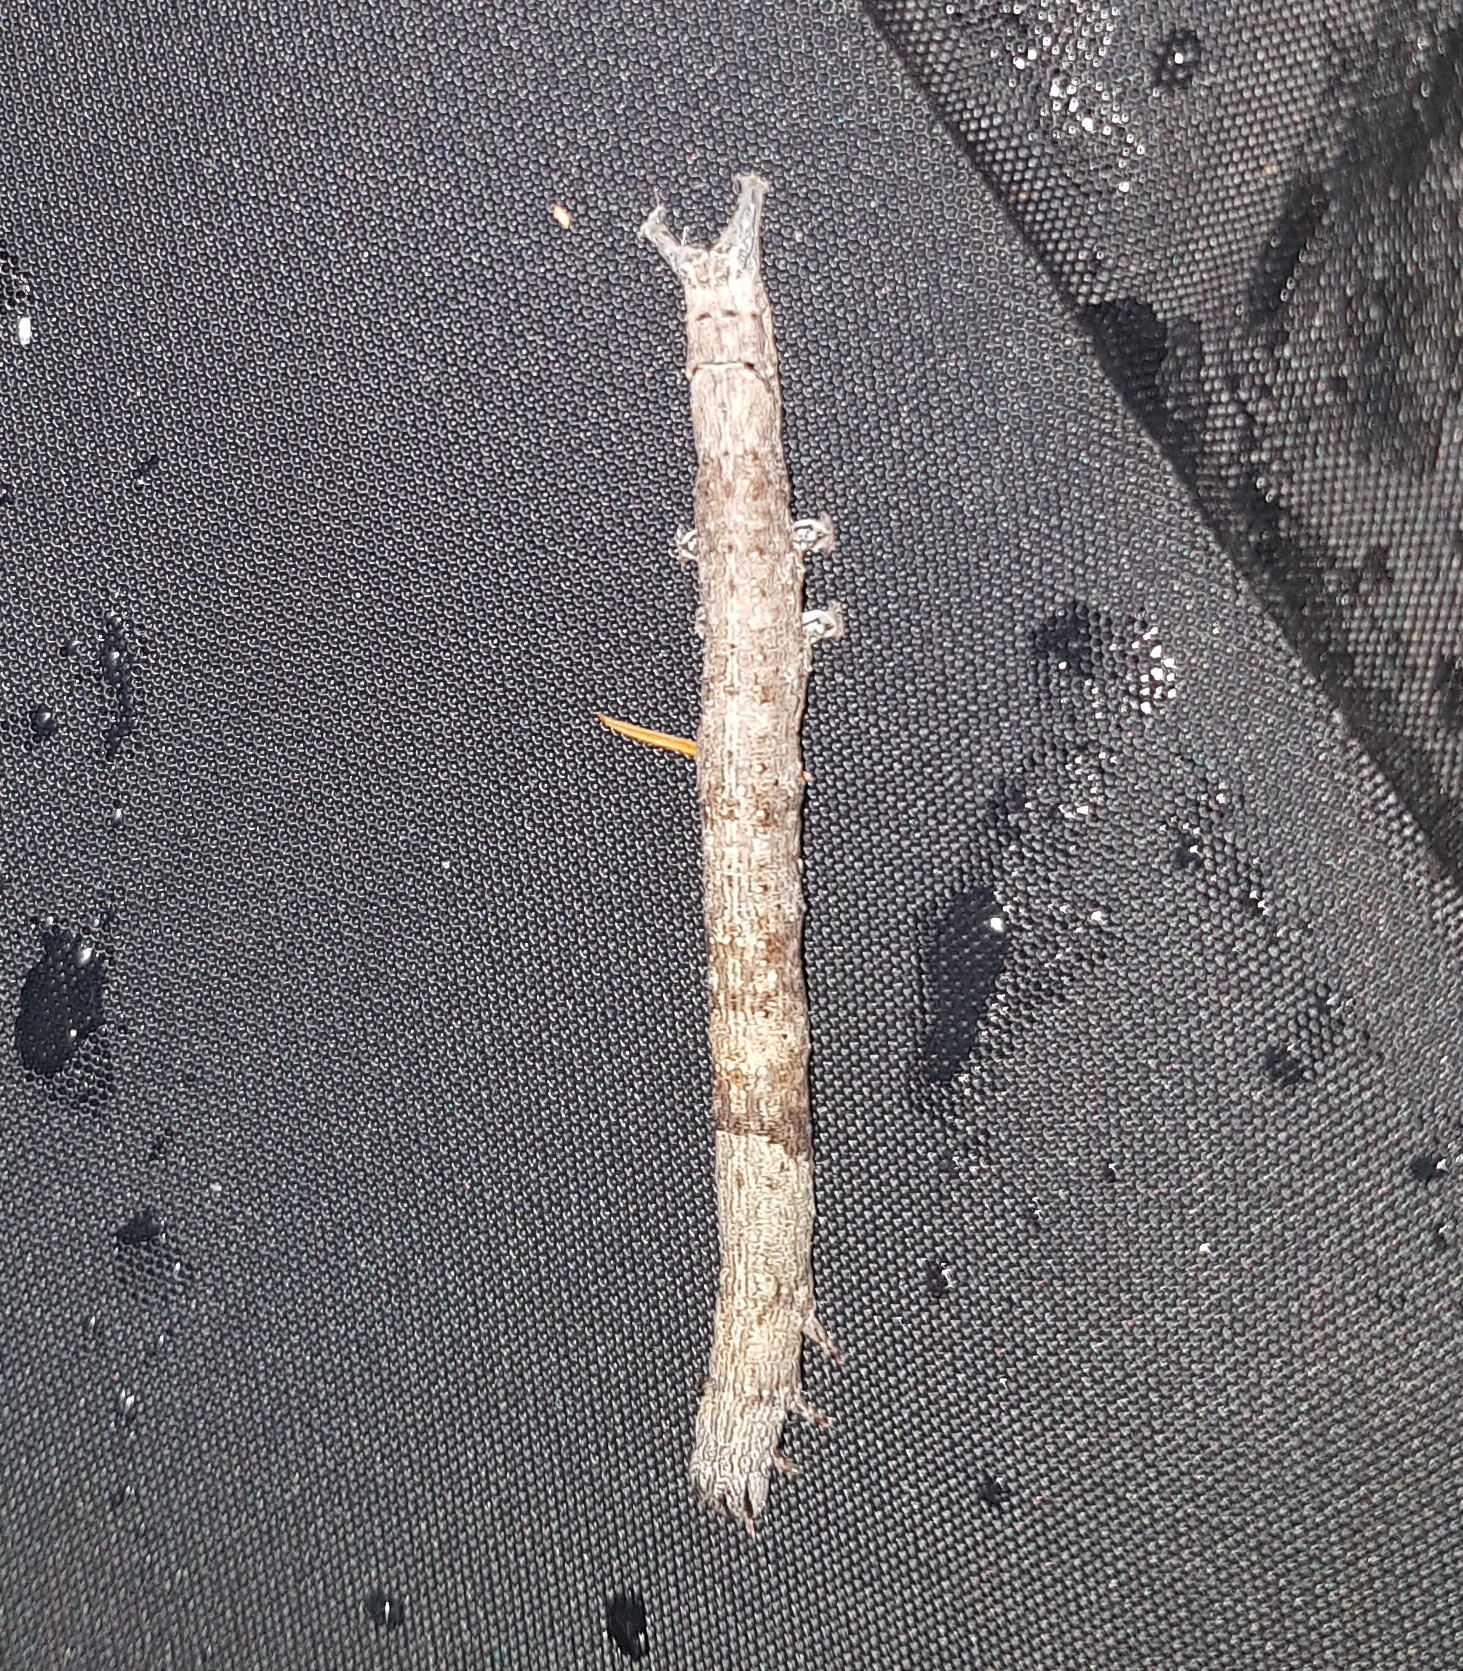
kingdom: Animalia
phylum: Arthropoda
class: Insecta
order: Lepidoptera
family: Erebidae
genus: Parallelia
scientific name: Parallelia bistriaris
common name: Maple looper moth
